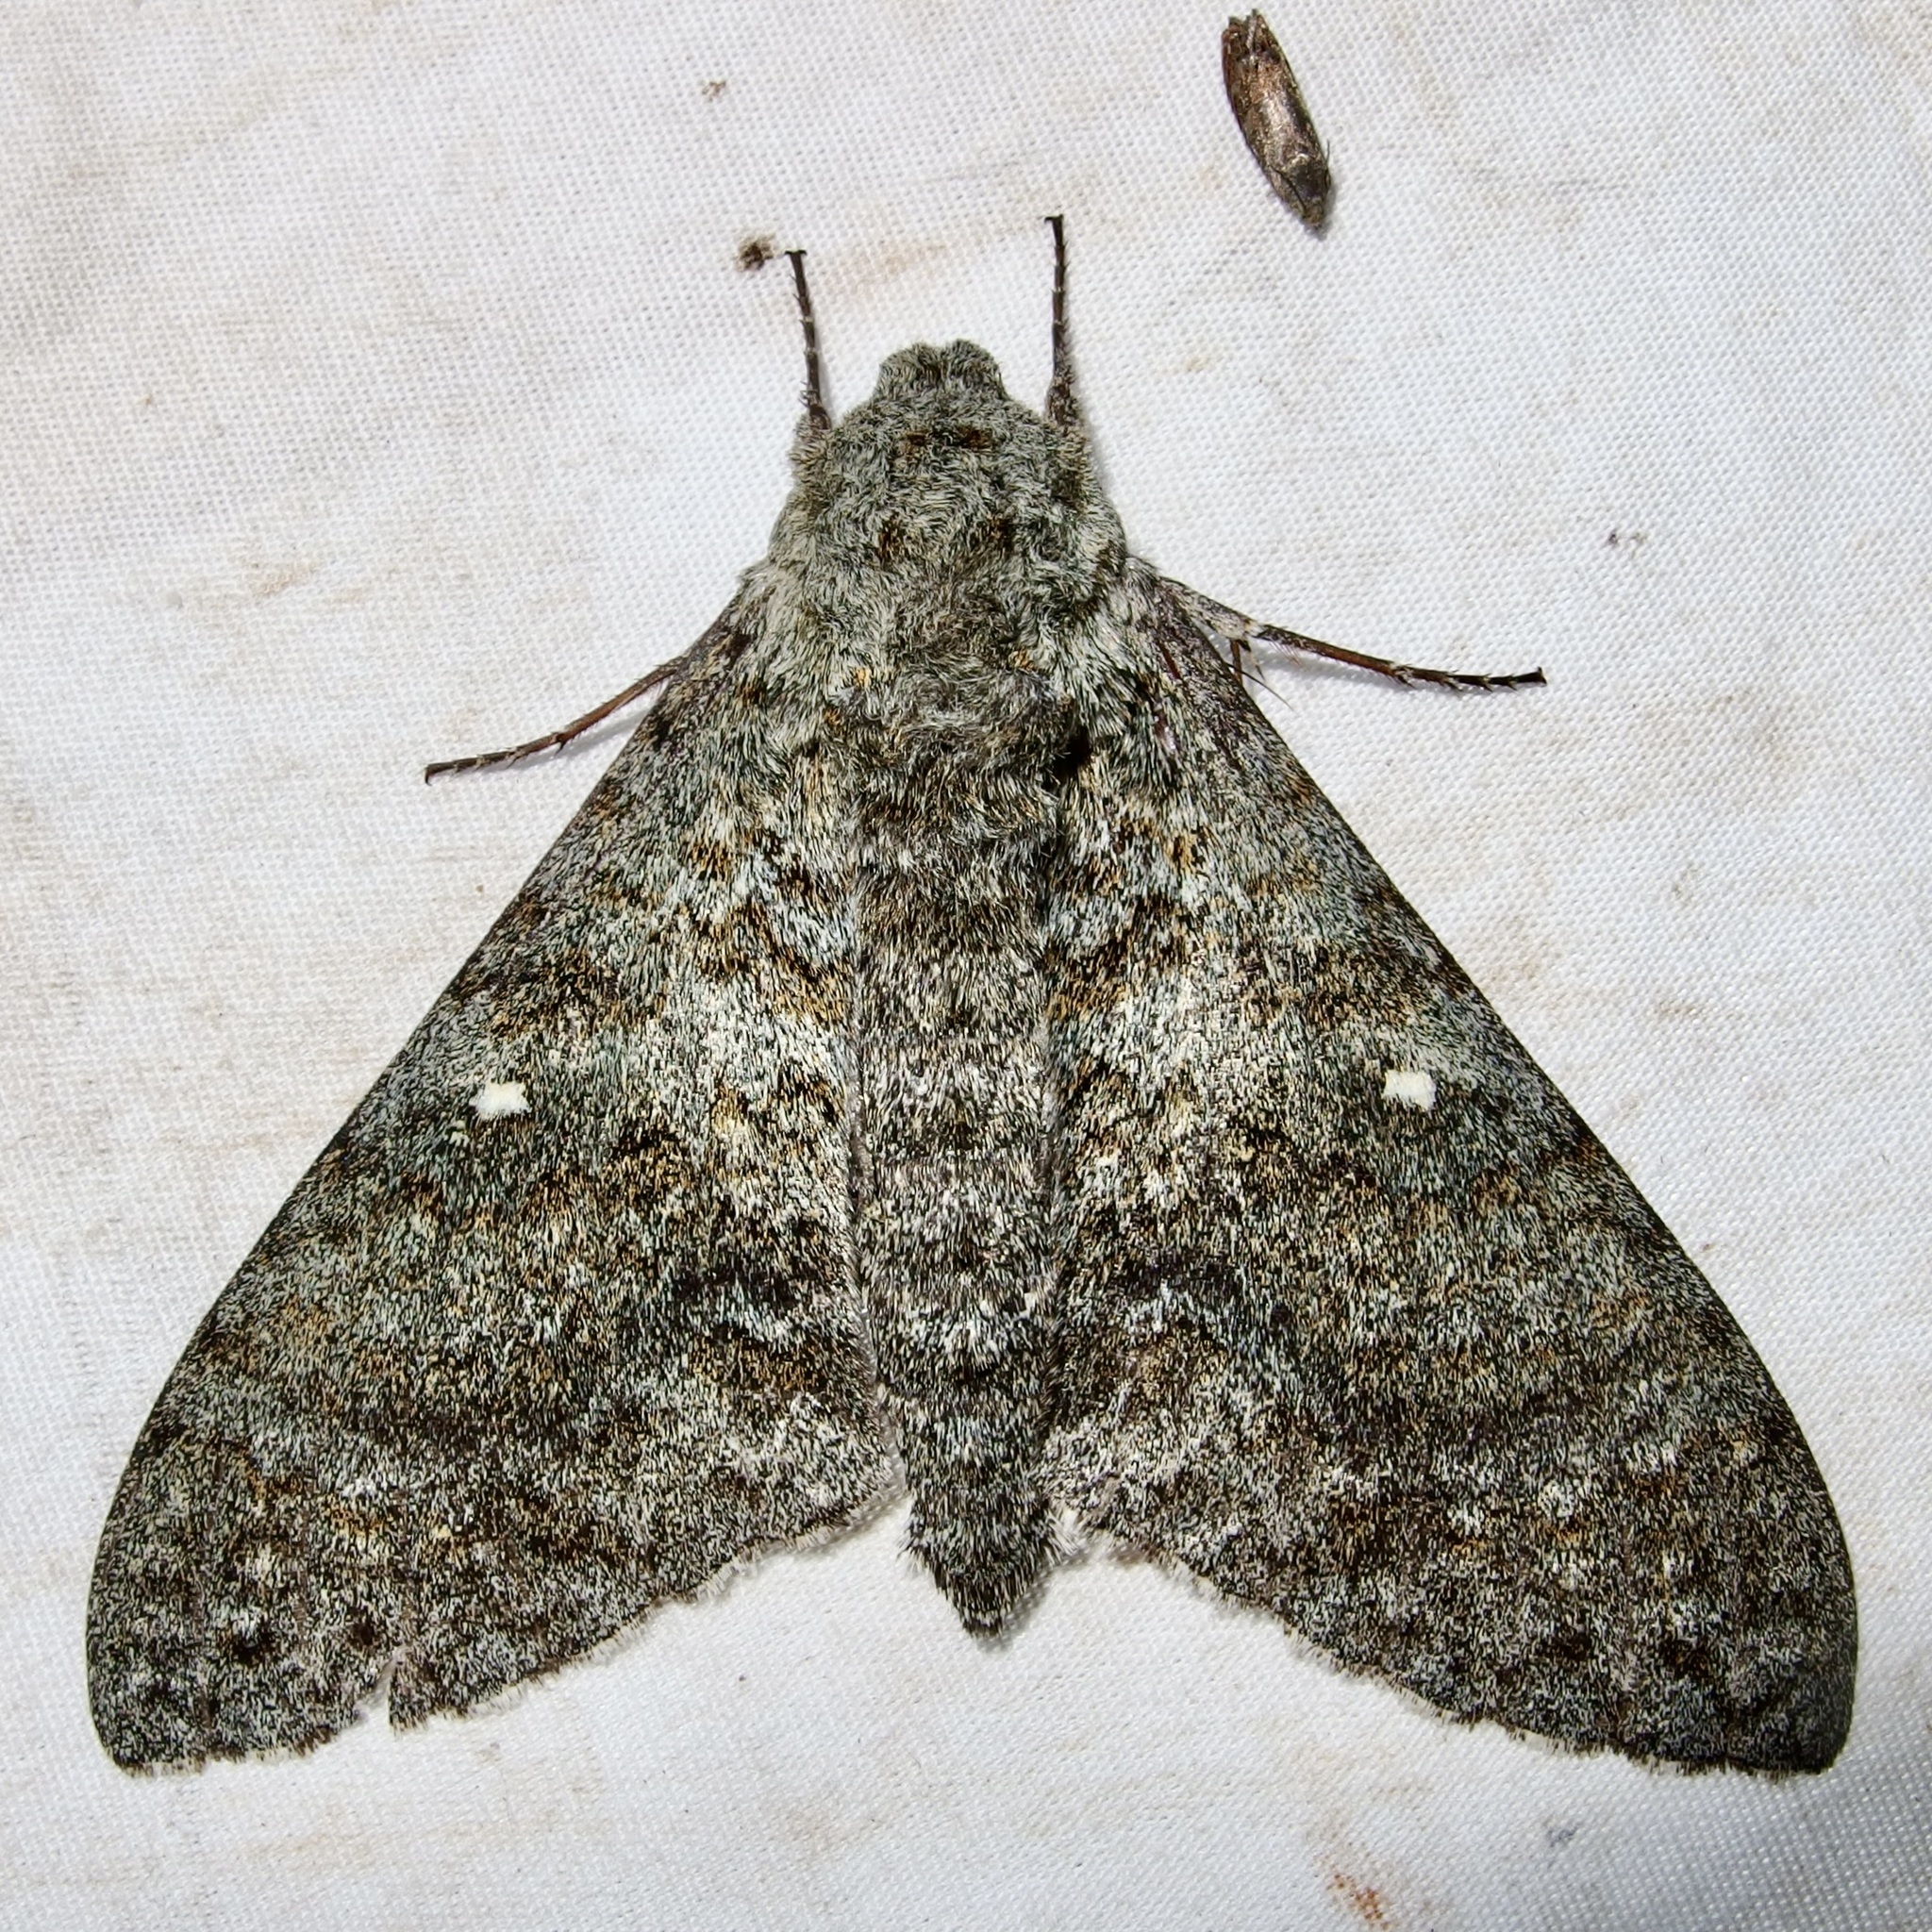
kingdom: Animalia
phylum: Arthropoda
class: Insecta
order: Lepidoptera
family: Sphingidae
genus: Manduca
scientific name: Manduca muscosa
